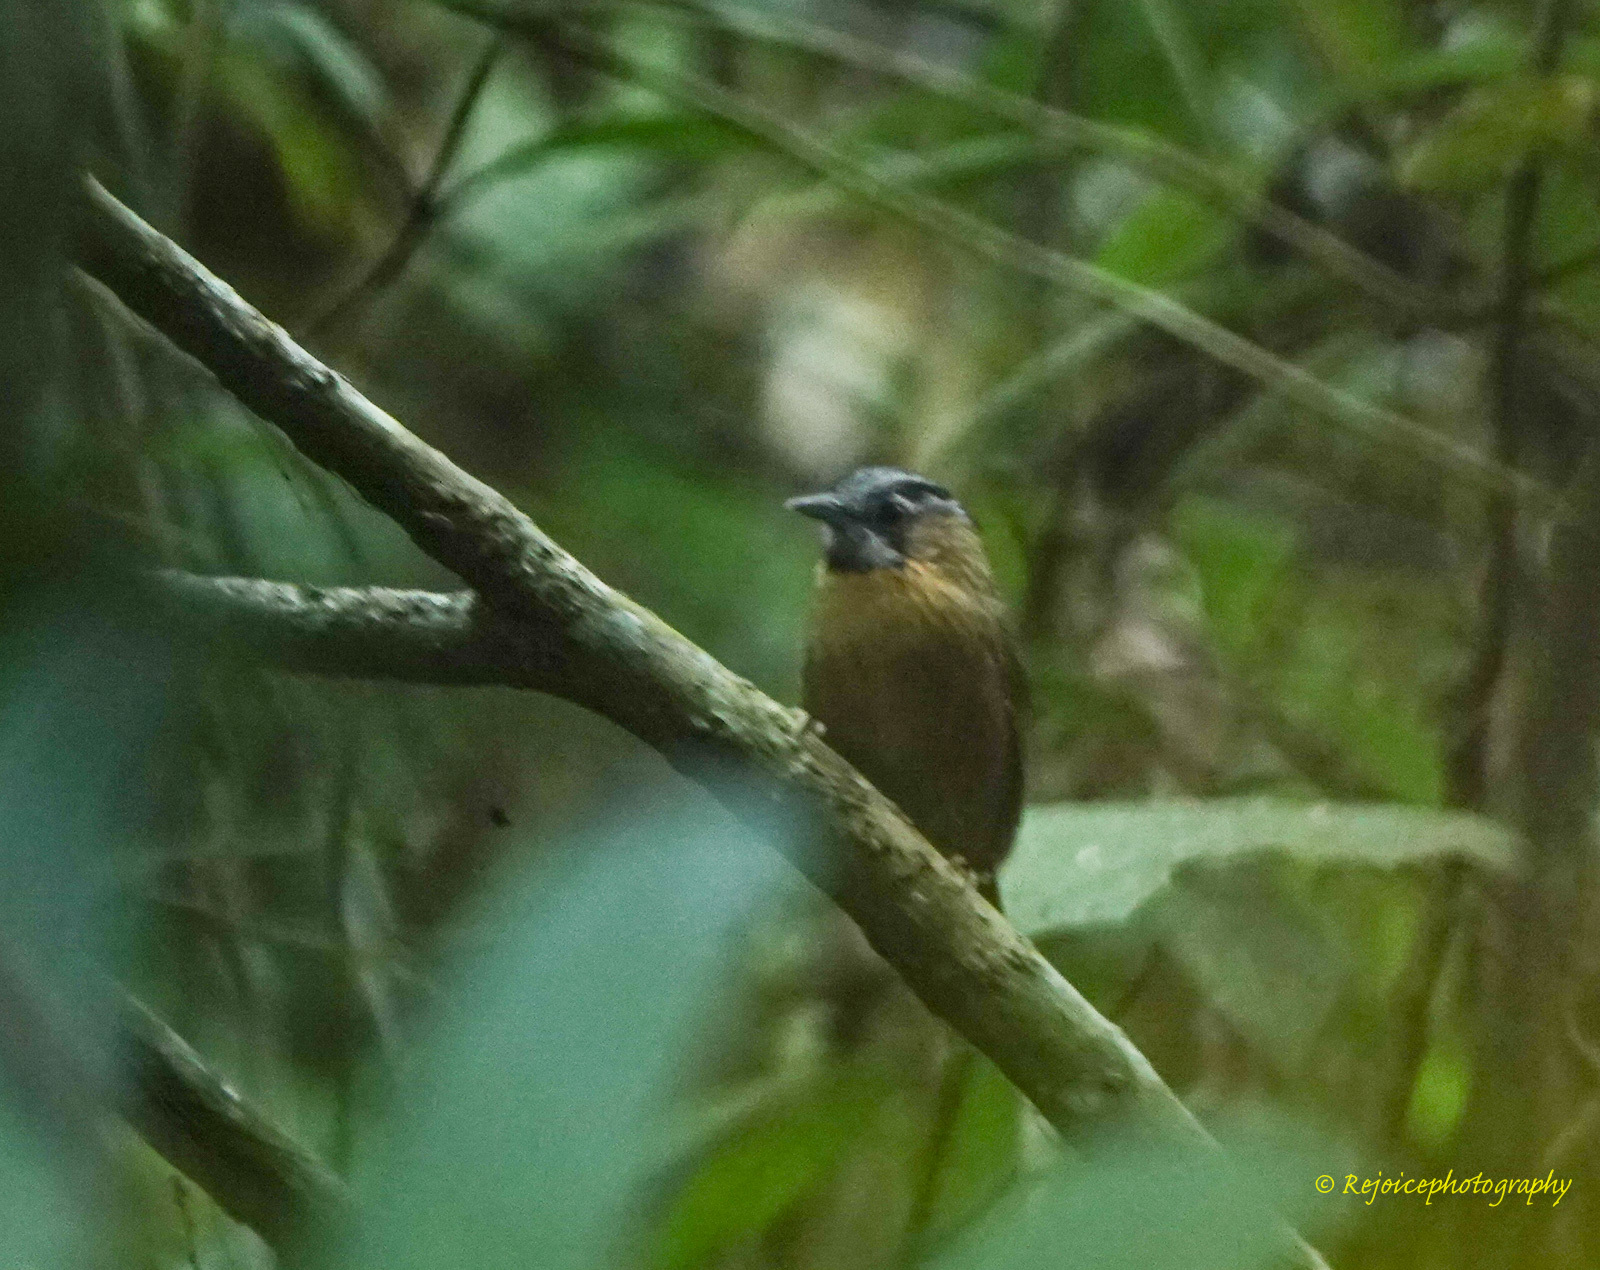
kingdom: Animalia
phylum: Chordata
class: Aves
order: Passeriformes
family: Timaliidae
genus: Stachyris
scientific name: Stachyris nigriceps
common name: Grey-throated babbler
